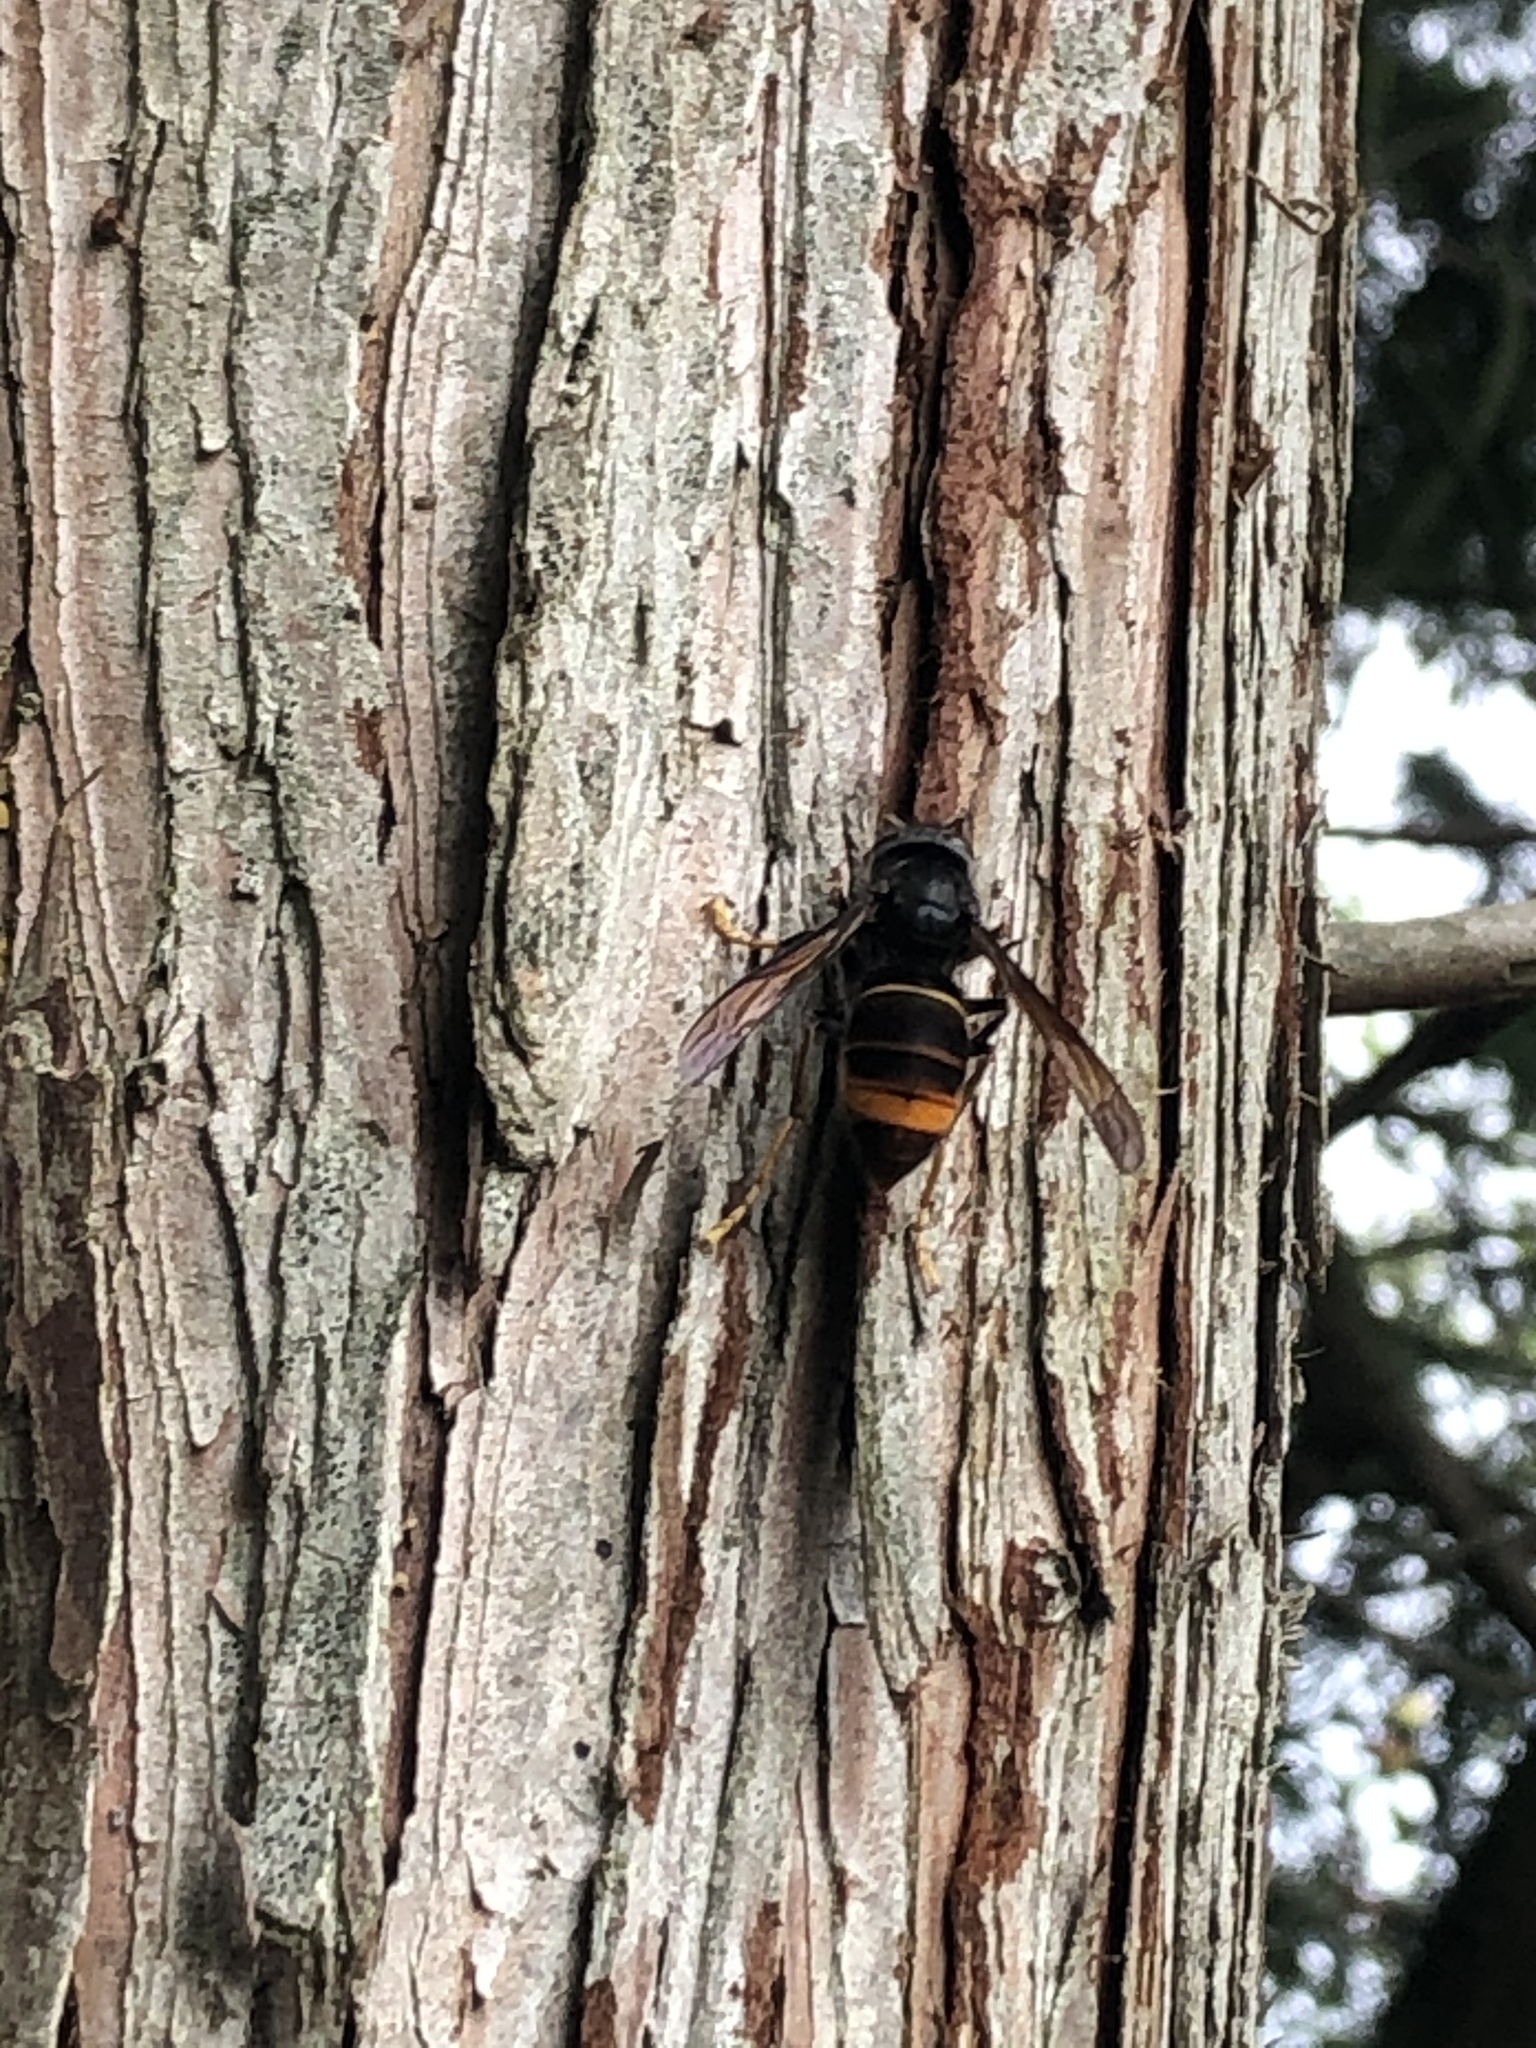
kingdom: Animalia
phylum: Arthropoda
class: Insecta
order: Hymenoptera
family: Vespidae
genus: Vespa
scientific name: Vespa velutina
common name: Asian hornet
